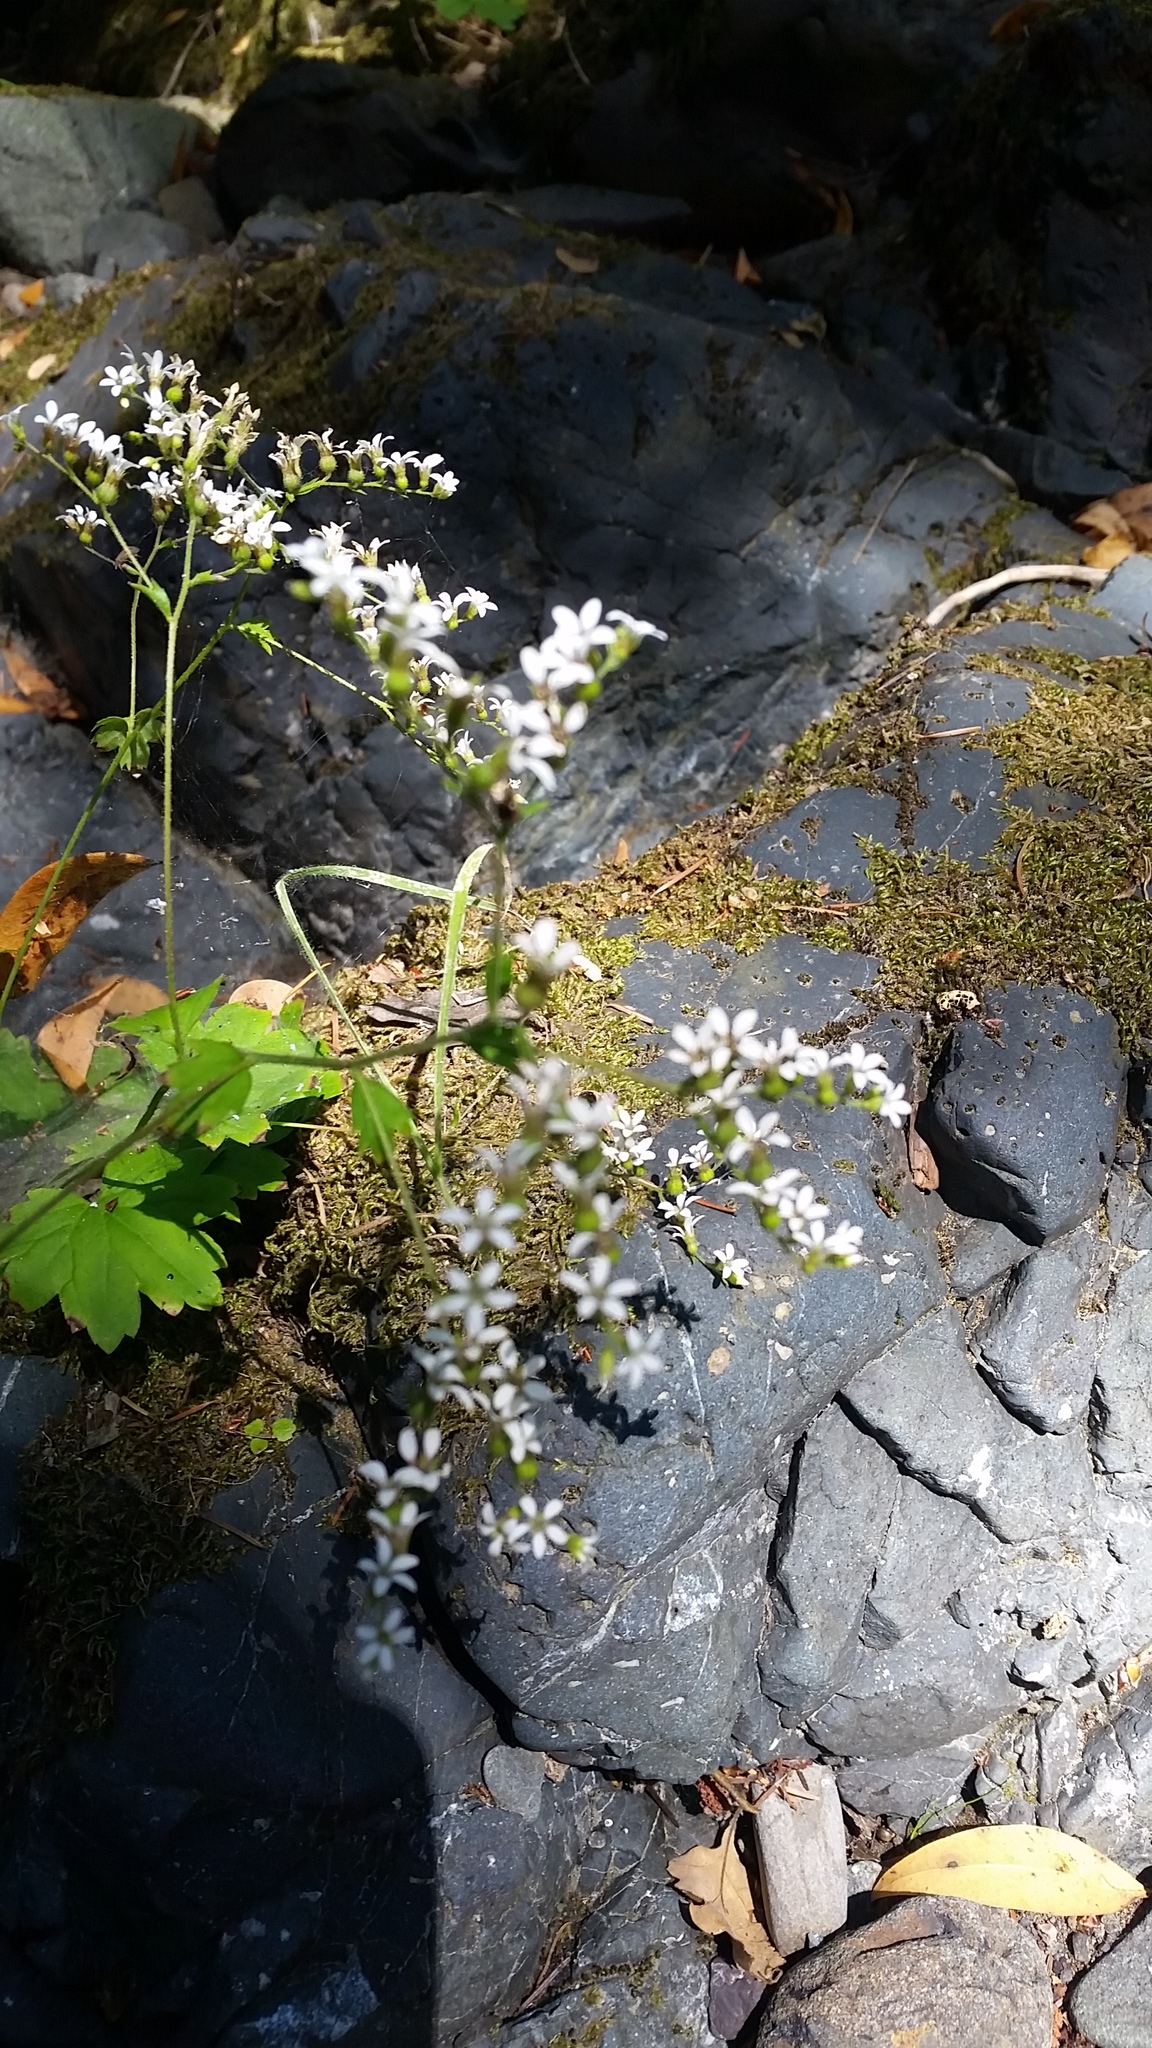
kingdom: Plantae
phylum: Tracheophyta
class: Magnoliopsida
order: Saxifragales
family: Saxifragaceae
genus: Boykinia
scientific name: Boykinia occidentalis
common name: Coast boykinia
